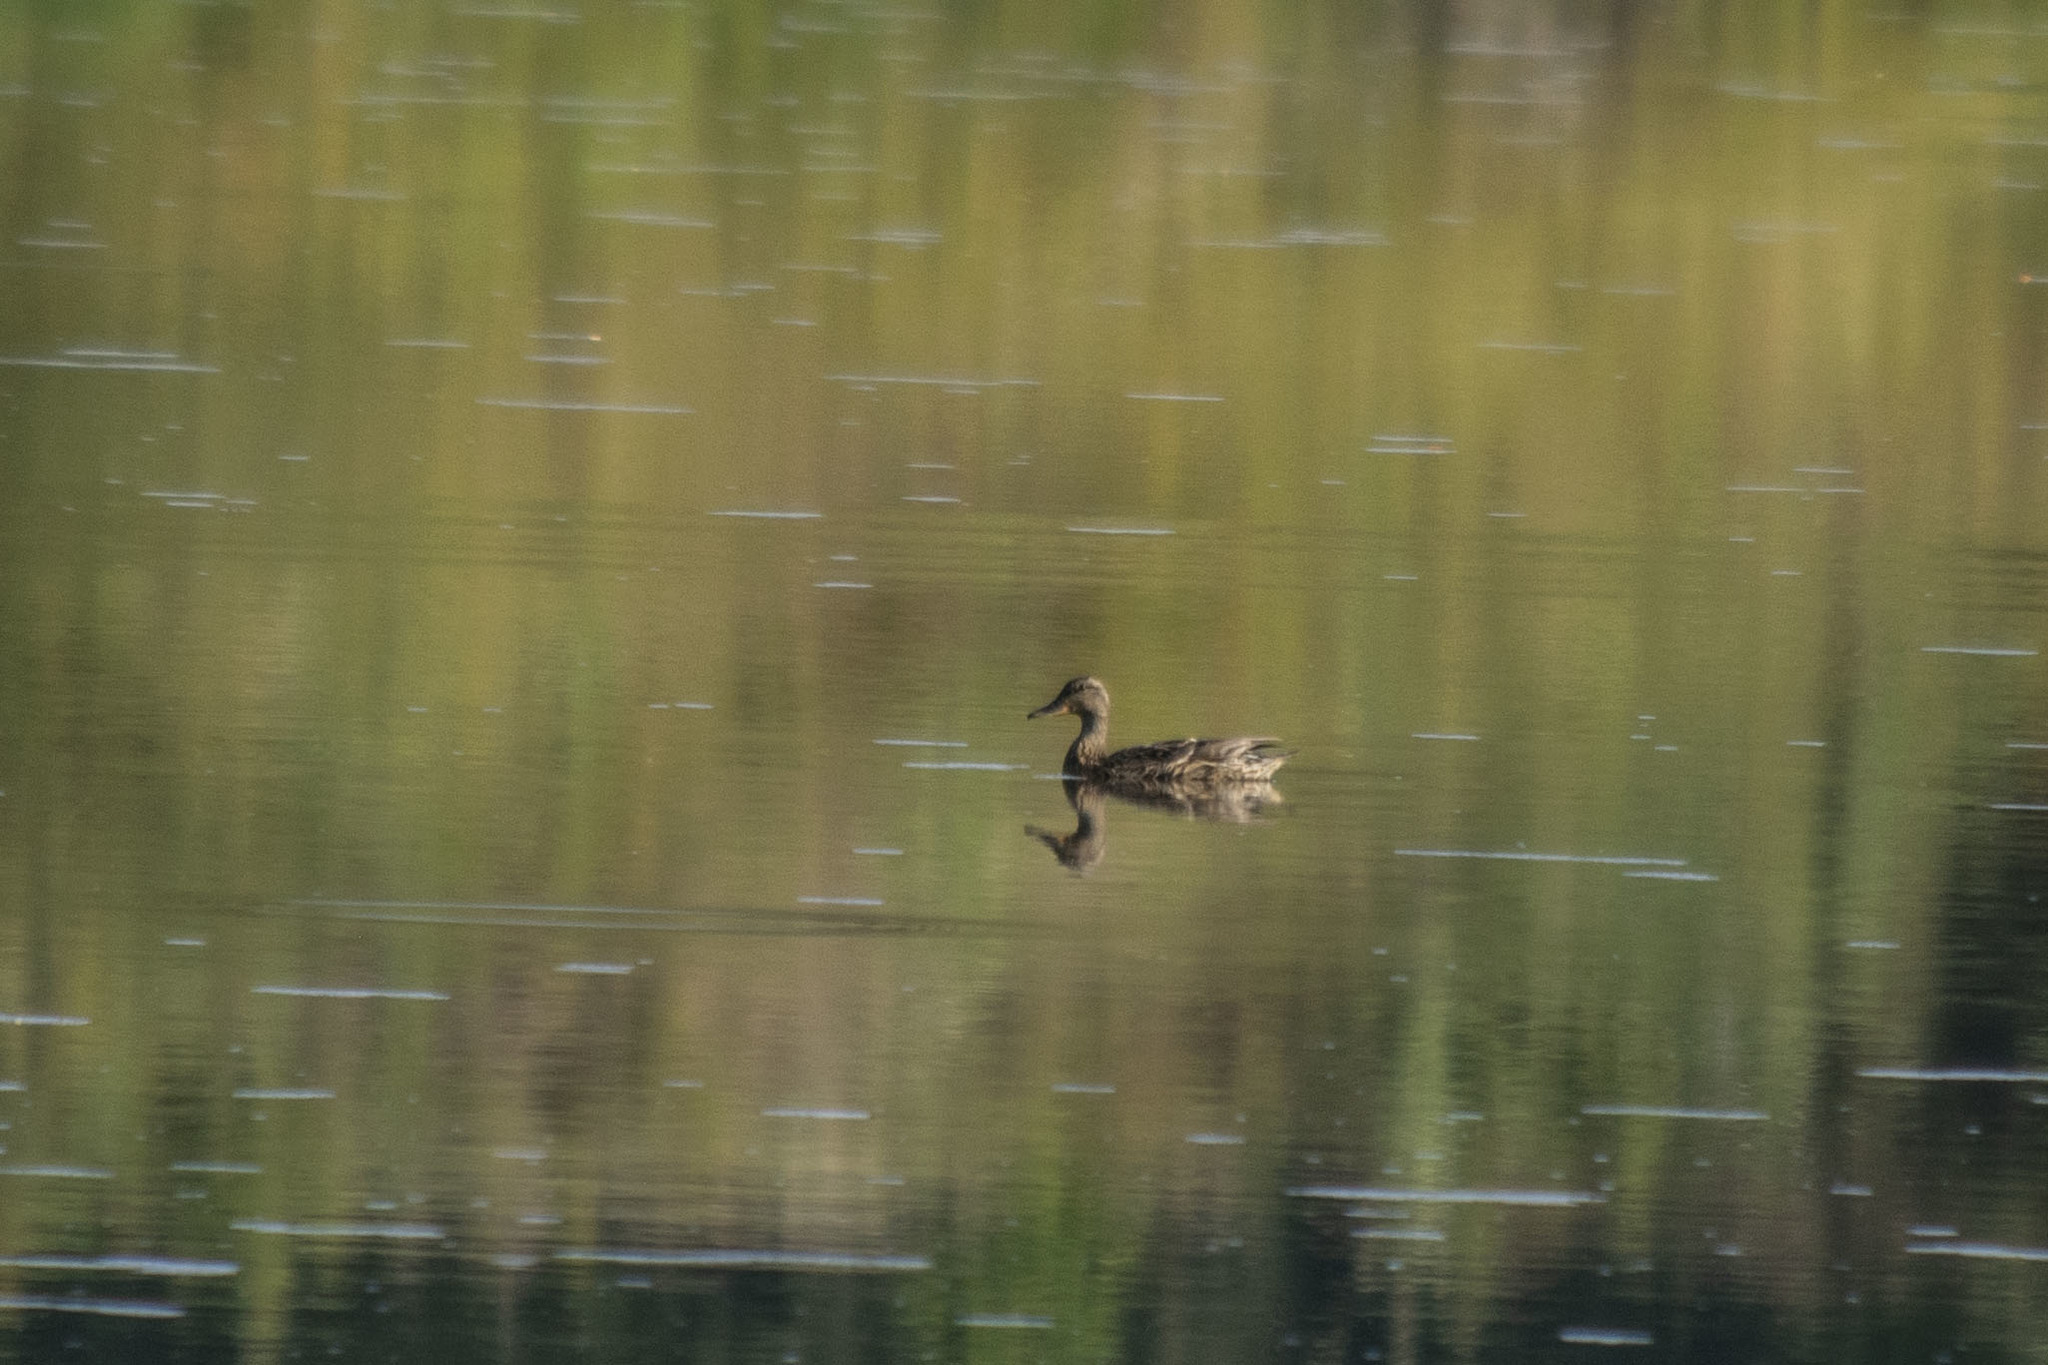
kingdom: Animalia
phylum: Chordata
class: Aves
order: Anseriformes
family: Anatidae
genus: Anas
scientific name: Anas platyrhynchos
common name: Mallard
